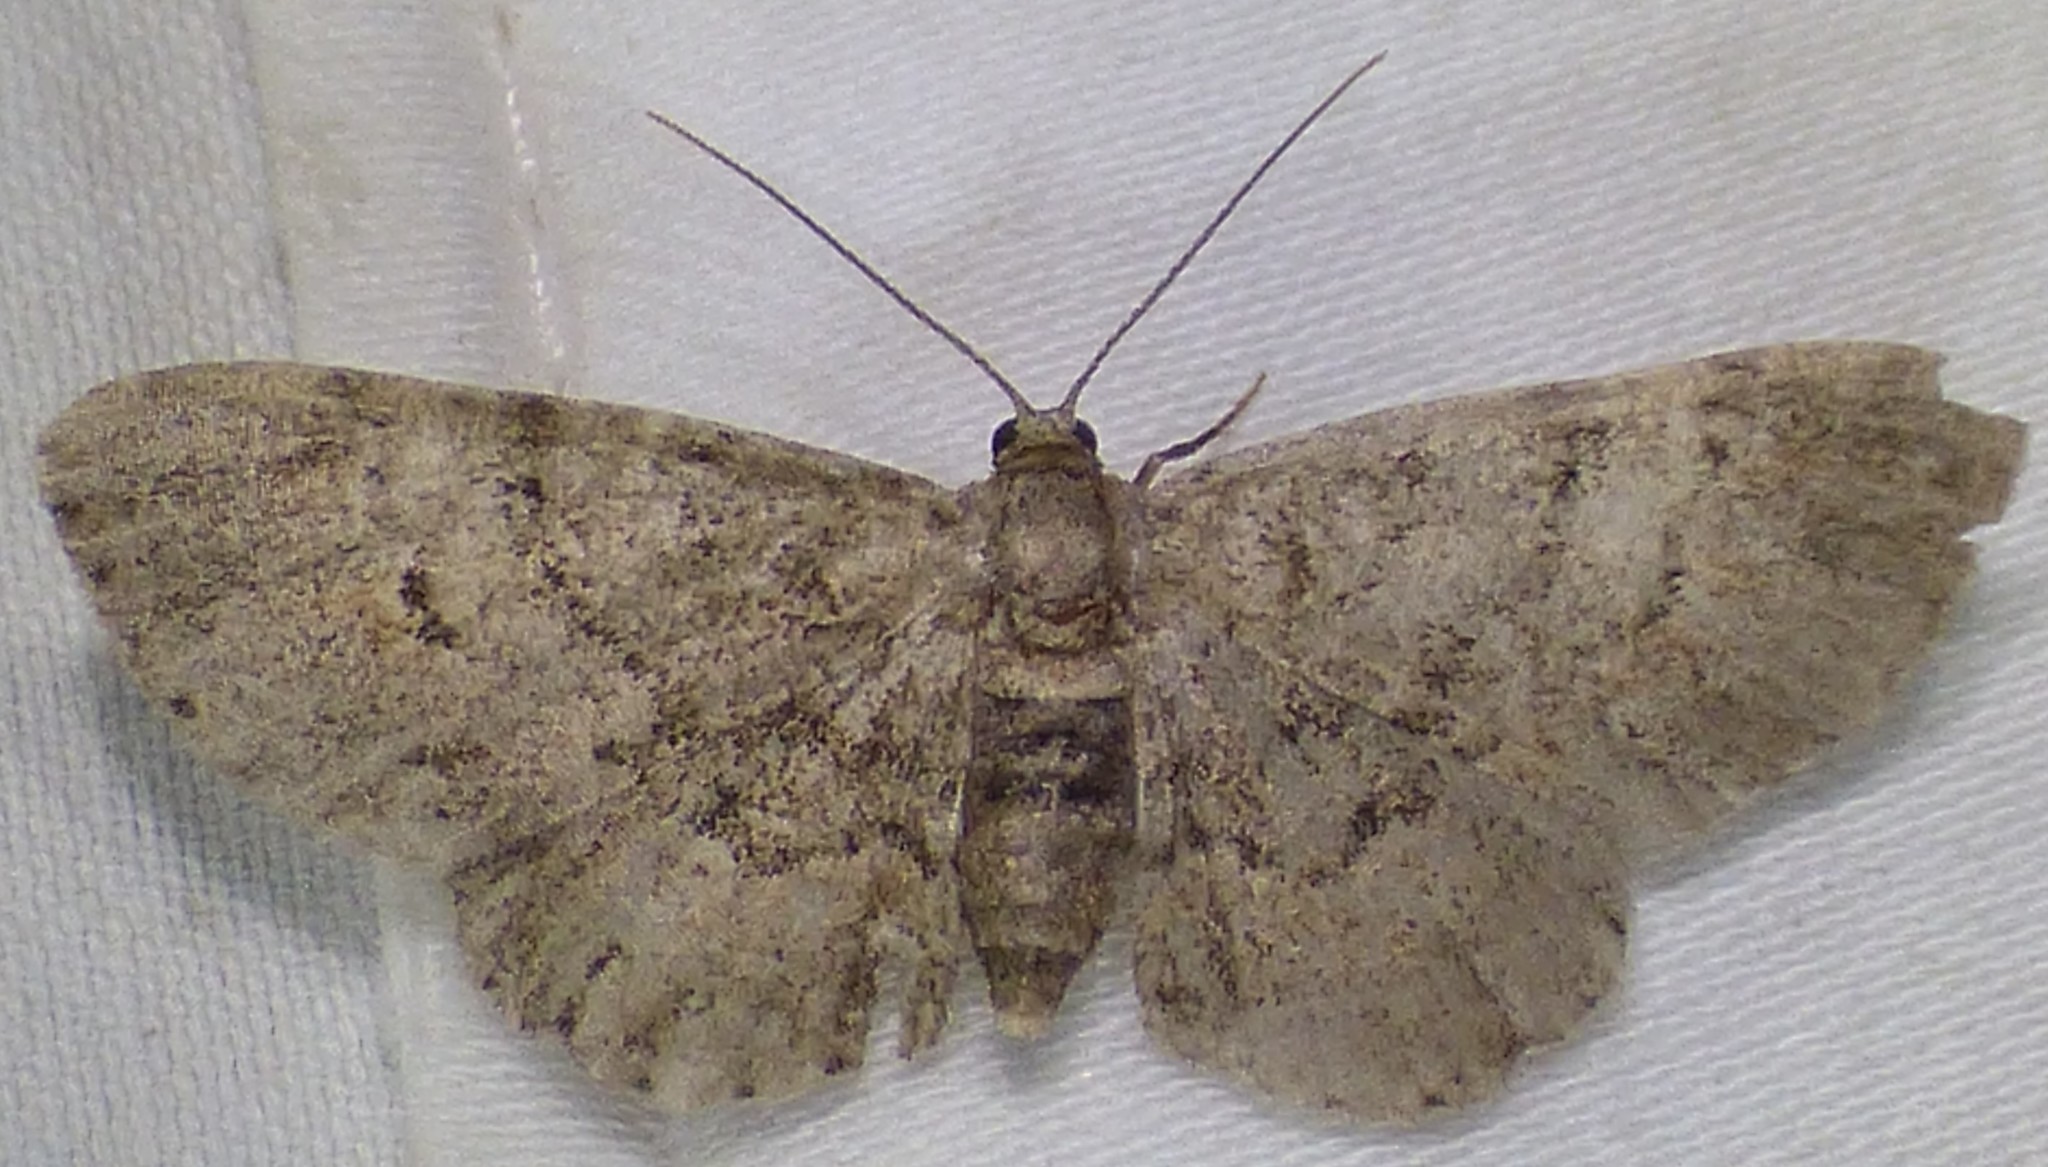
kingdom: Animalia
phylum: Arthropoda
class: Insecta
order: Lepidoptera
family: Geometridae
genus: Glenoides
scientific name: Glenoides texanaria
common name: Texas gray
